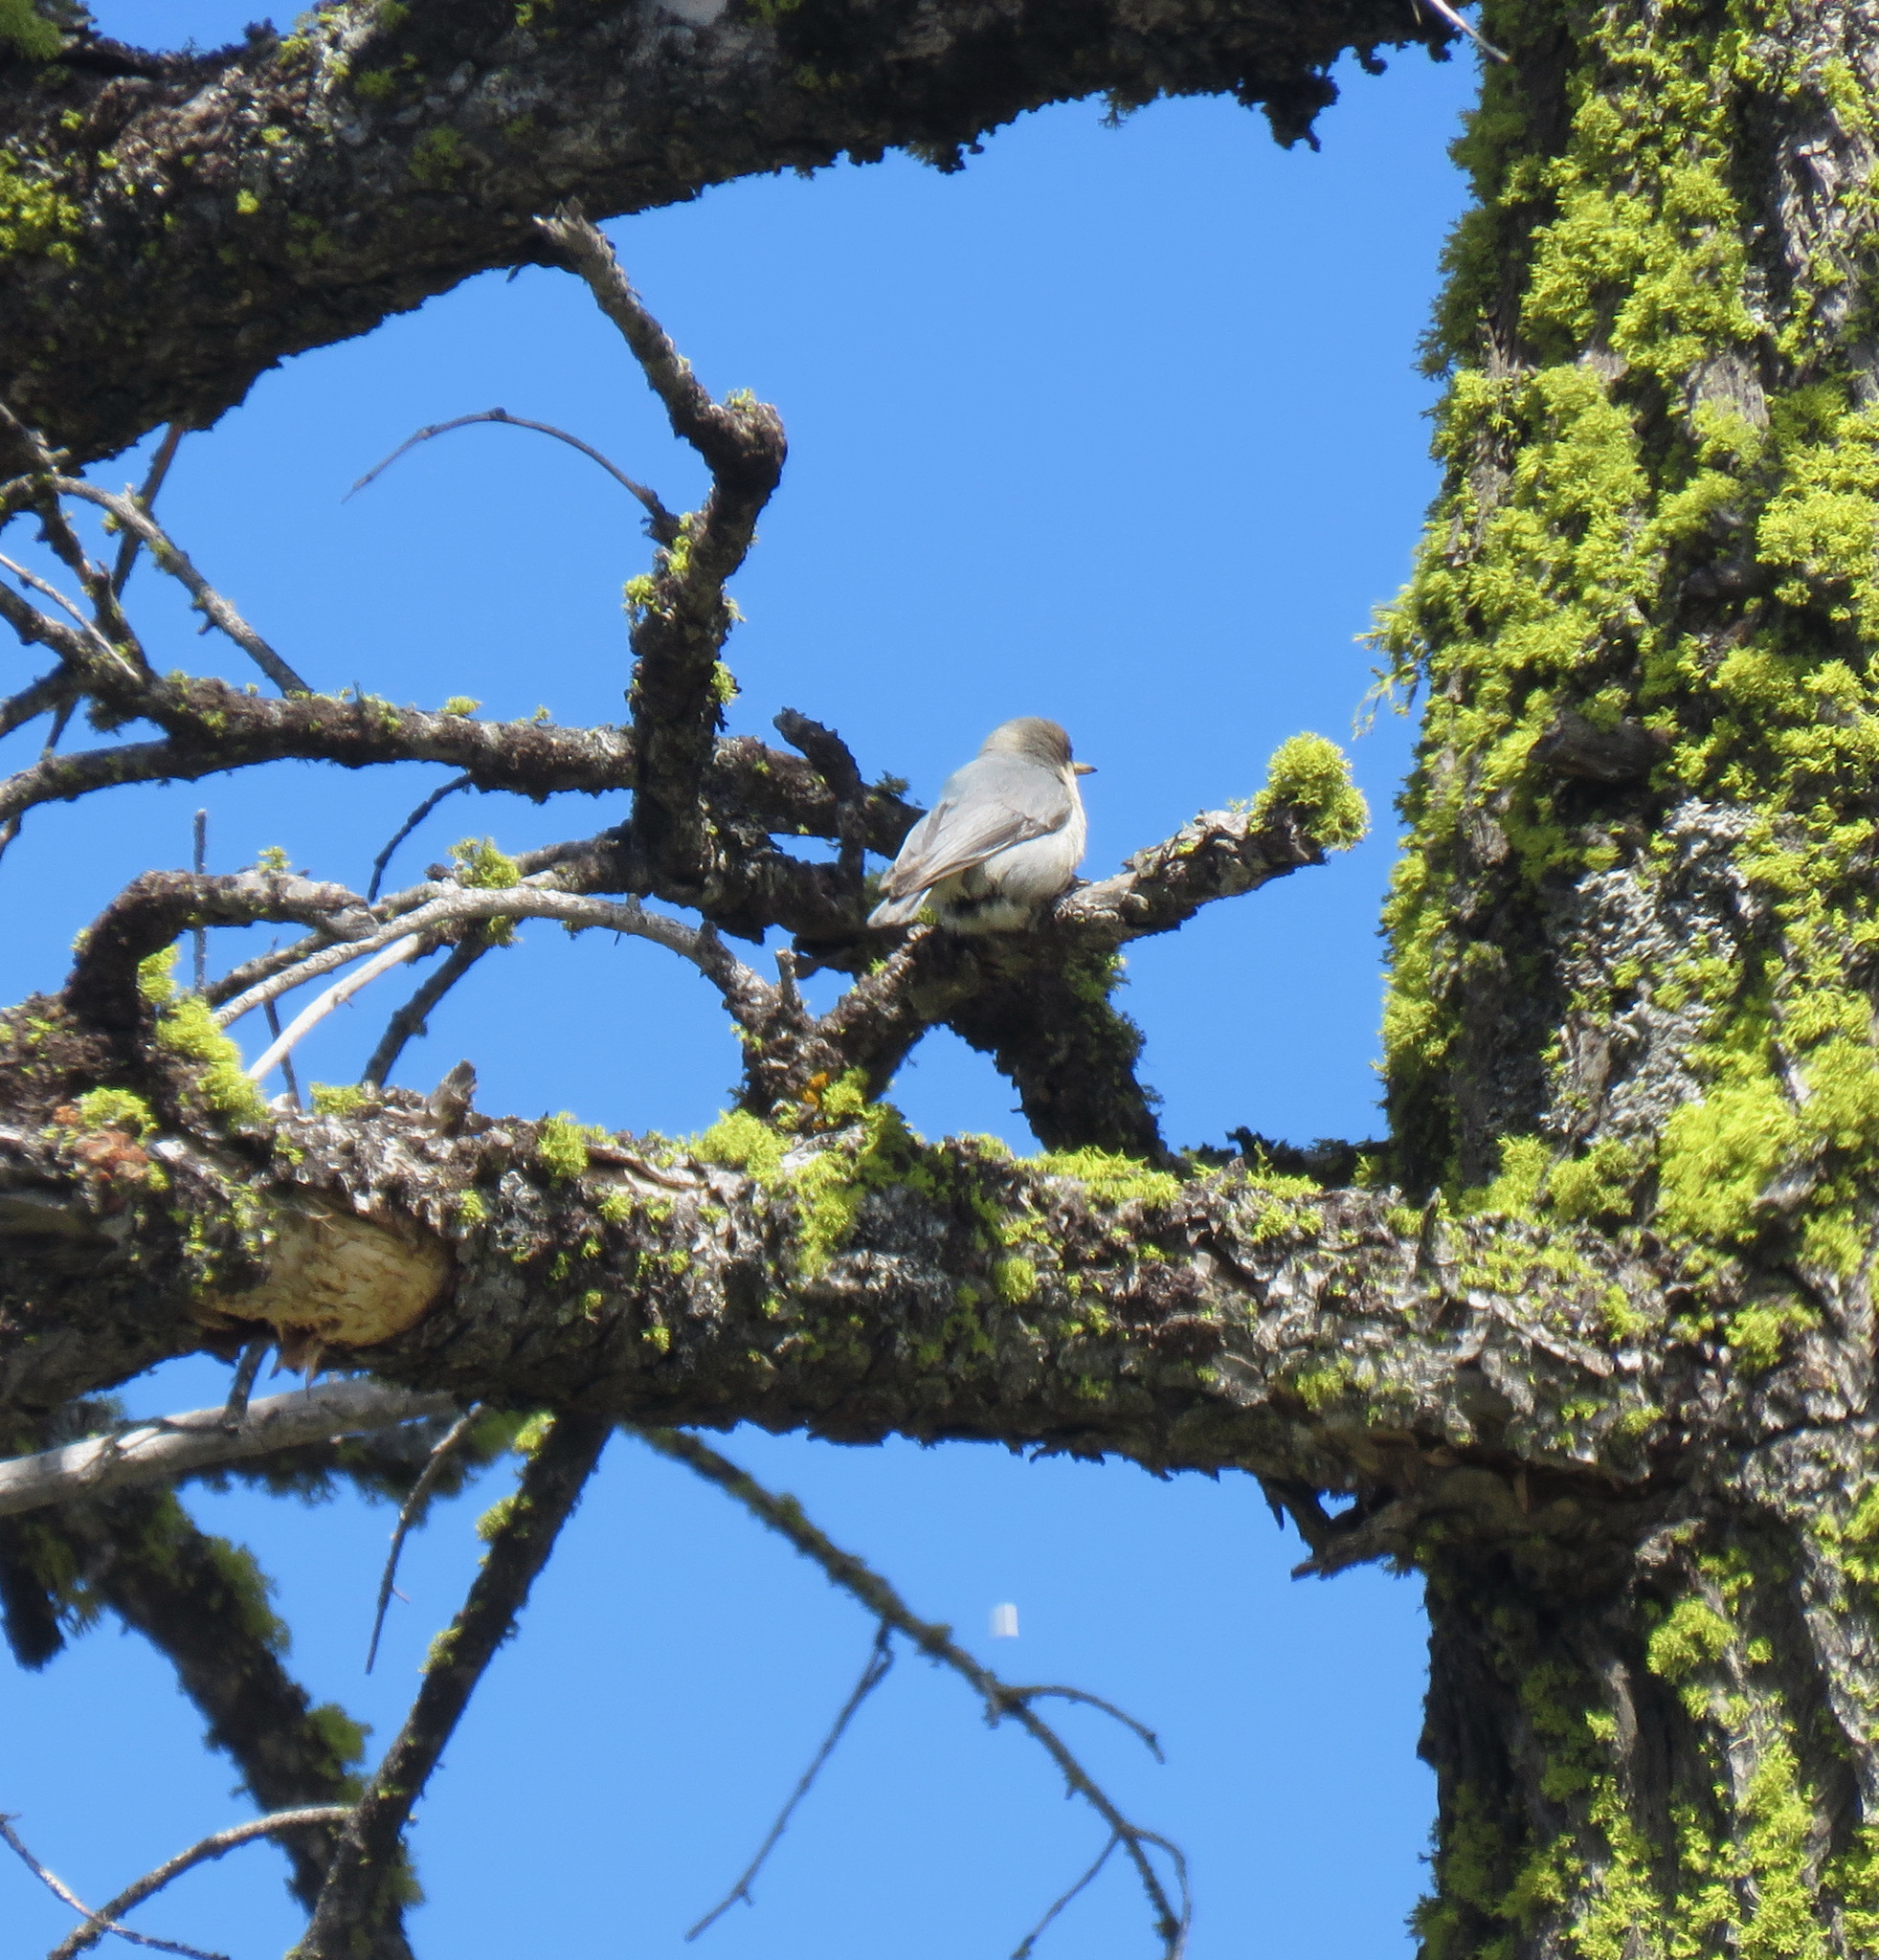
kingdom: Animalia
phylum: Chordata
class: Aves
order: Passeriformes
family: Sittidae
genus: Sitta
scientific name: Sitta pygmaea
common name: Pygmy nuthatch
